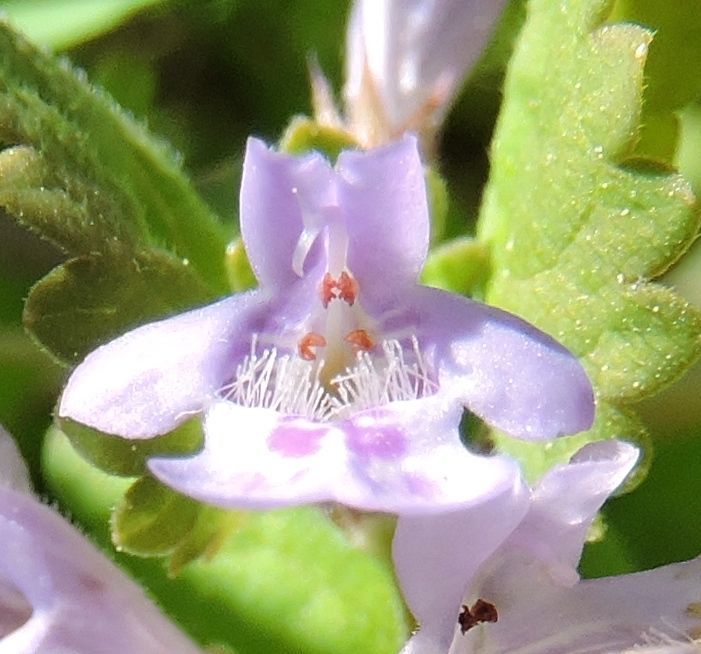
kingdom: Plantae
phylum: Tracheophyta
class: Magnoliopsida
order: Lamiales
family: Lamiaceae
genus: Glechoma
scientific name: Glechoma hederacea
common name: Ground ivy
